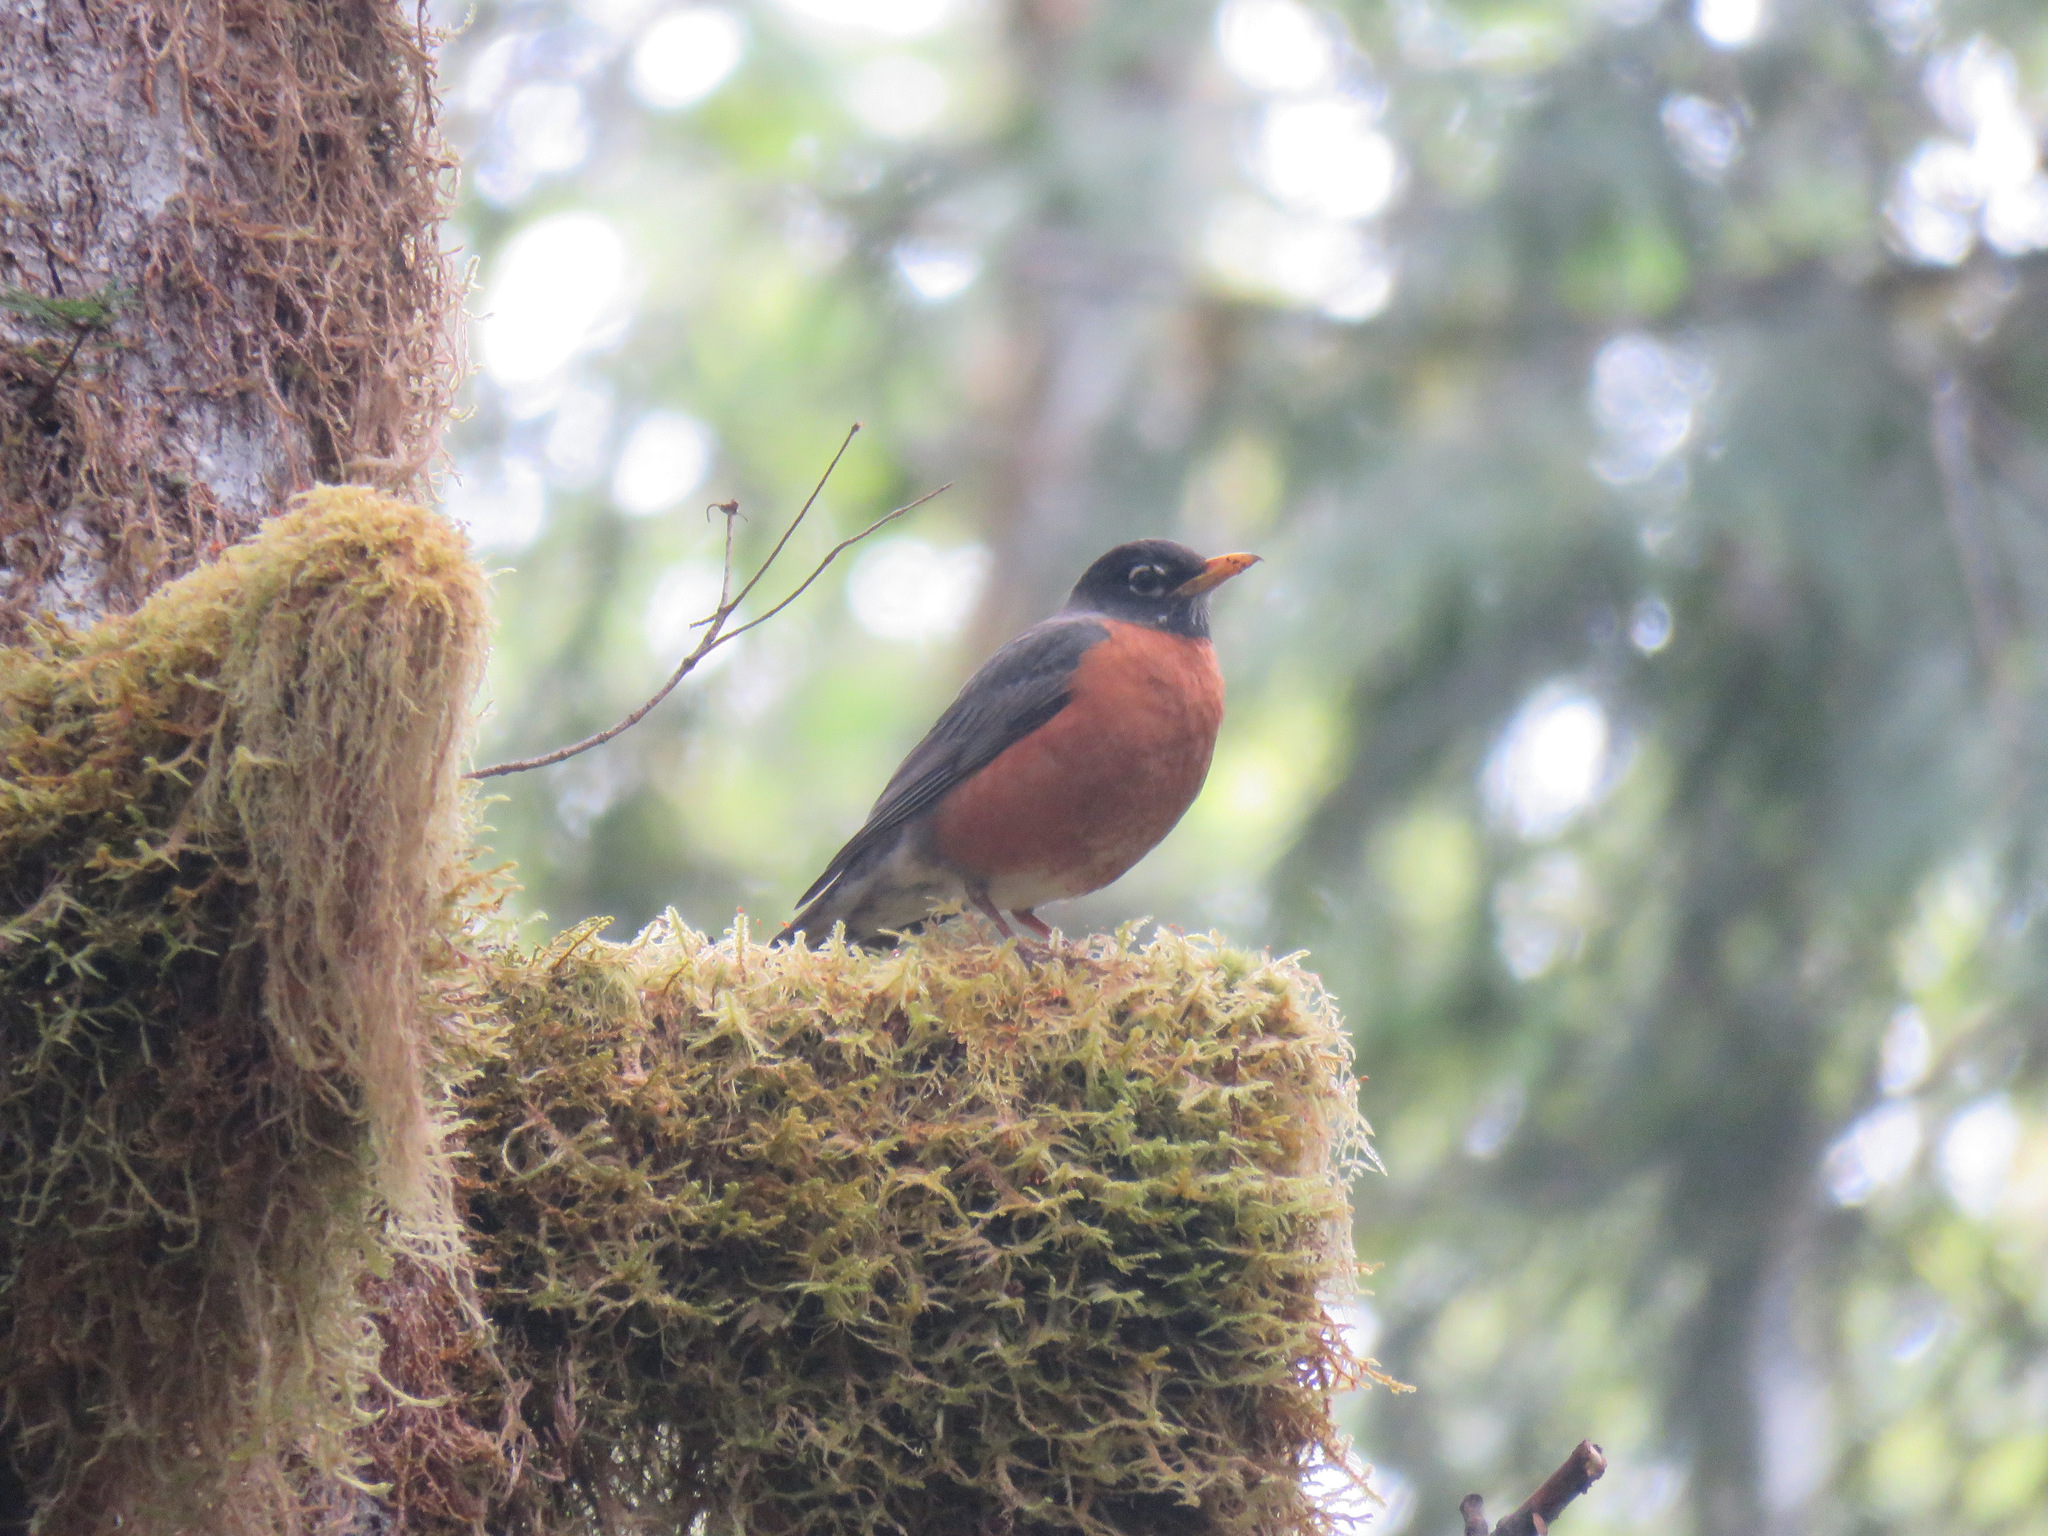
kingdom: Animalia
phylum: Chordata
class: Aves
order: Passeriformes
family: Turdidae
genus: Turdus
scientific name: Turdus migratorius
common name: American robin
